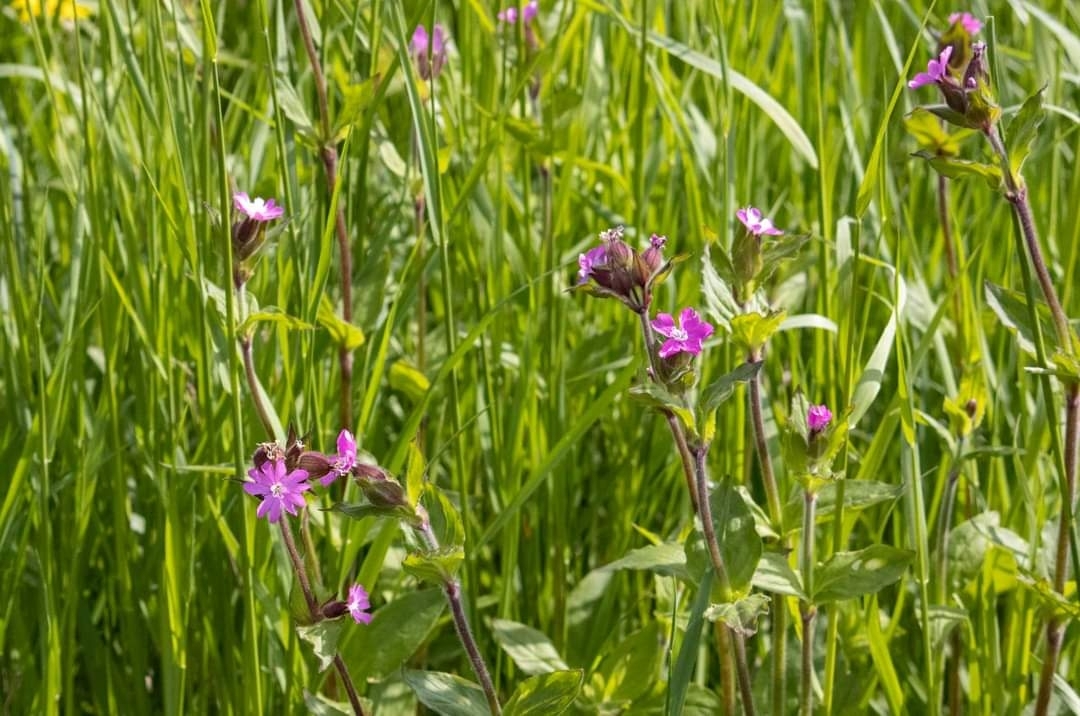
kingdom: Plantae
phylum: Tracheophyta
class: Magnoliopsida
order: Caryophyllales
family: Caryophyllaceae
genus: Silene
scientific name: Silene dioica
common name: Red campion
